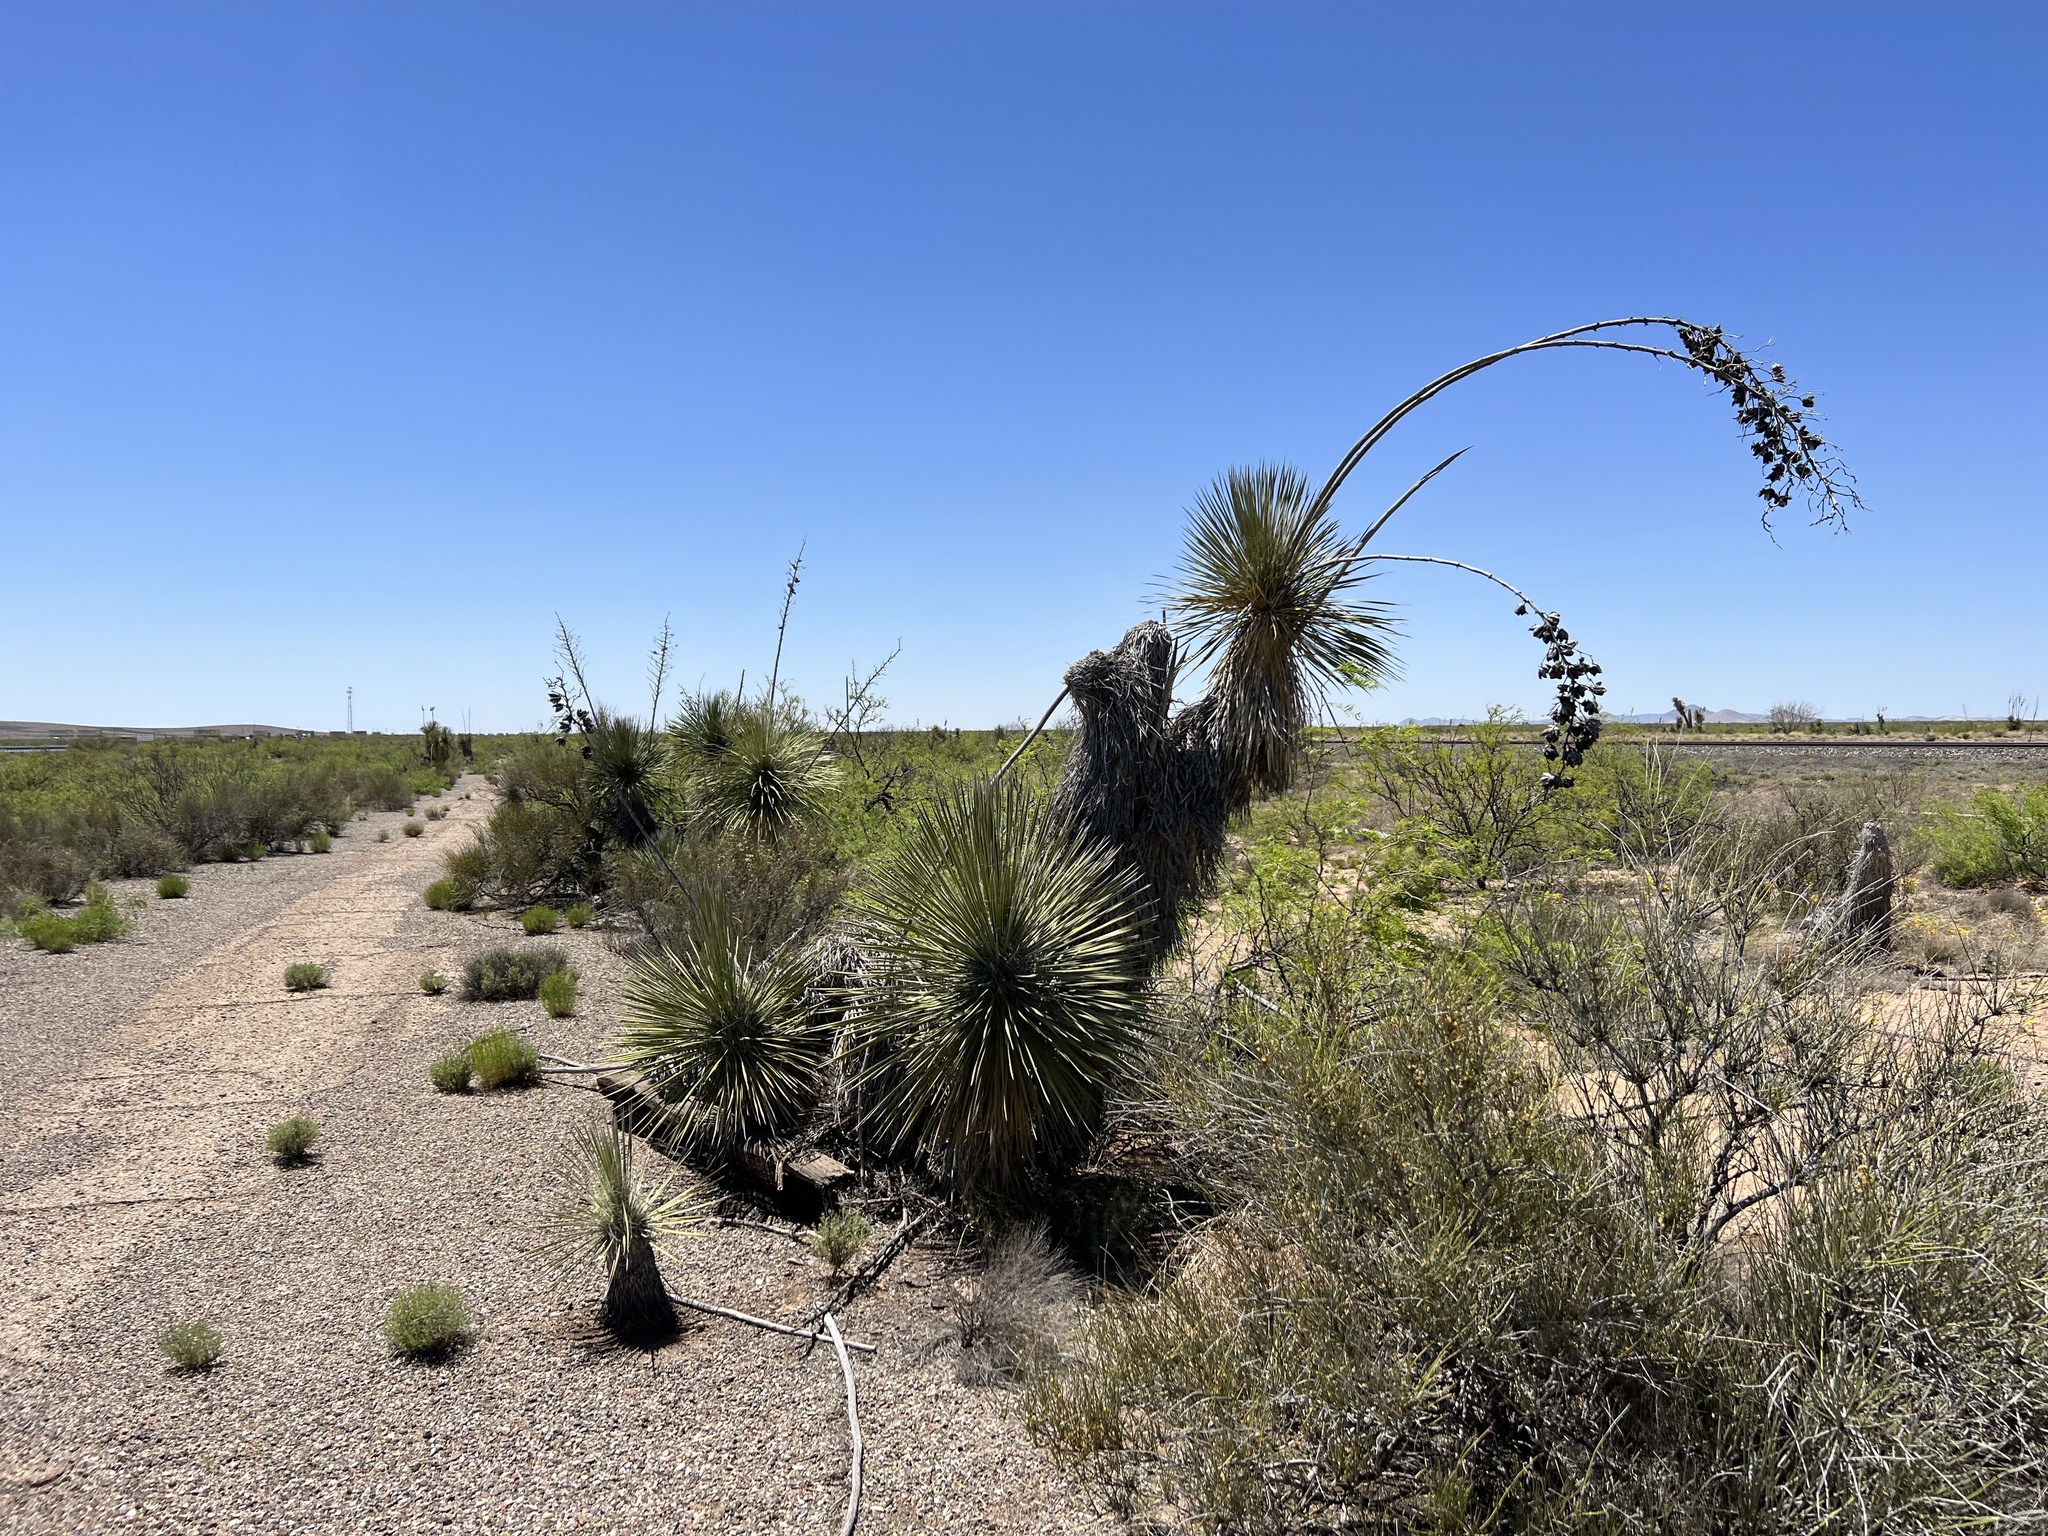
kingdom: Plantae
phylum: Tracheophyta
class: Liliopsida
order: Asparagales
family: Asparagaceae
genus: Yucca
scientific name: Yucca elata
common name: Palmella
